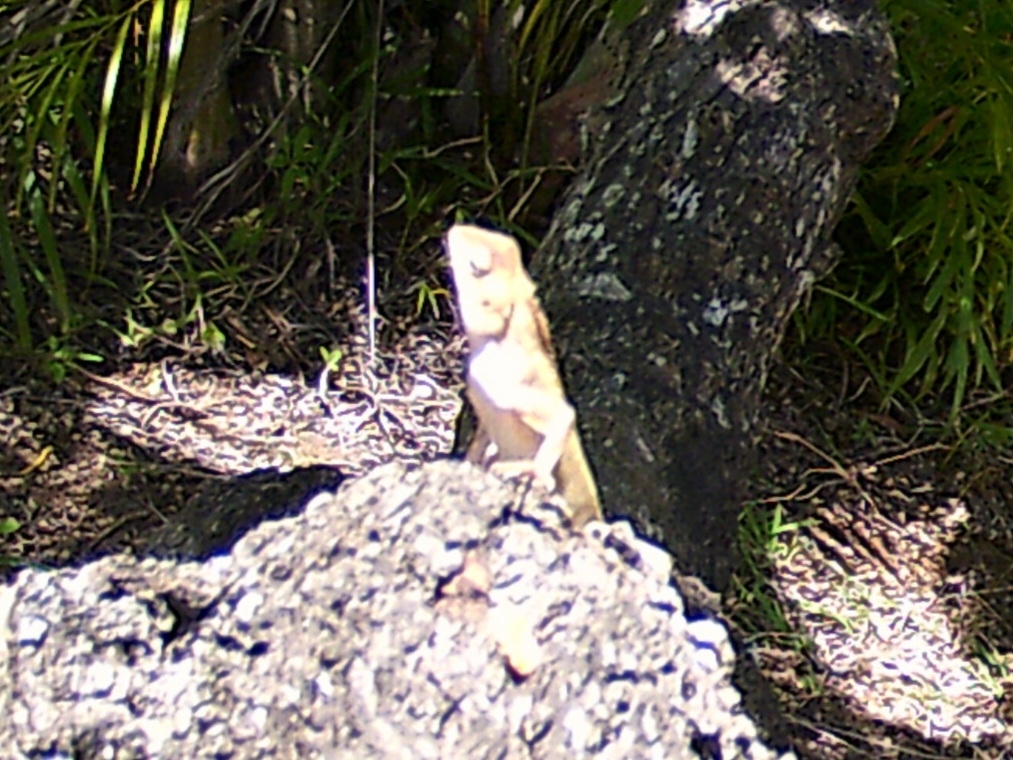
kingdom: Animalia
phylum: Chordata
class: Squamata
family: Agamidae
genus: Calotes
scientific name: Calotes versicolor
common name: Oriental garden lizard
